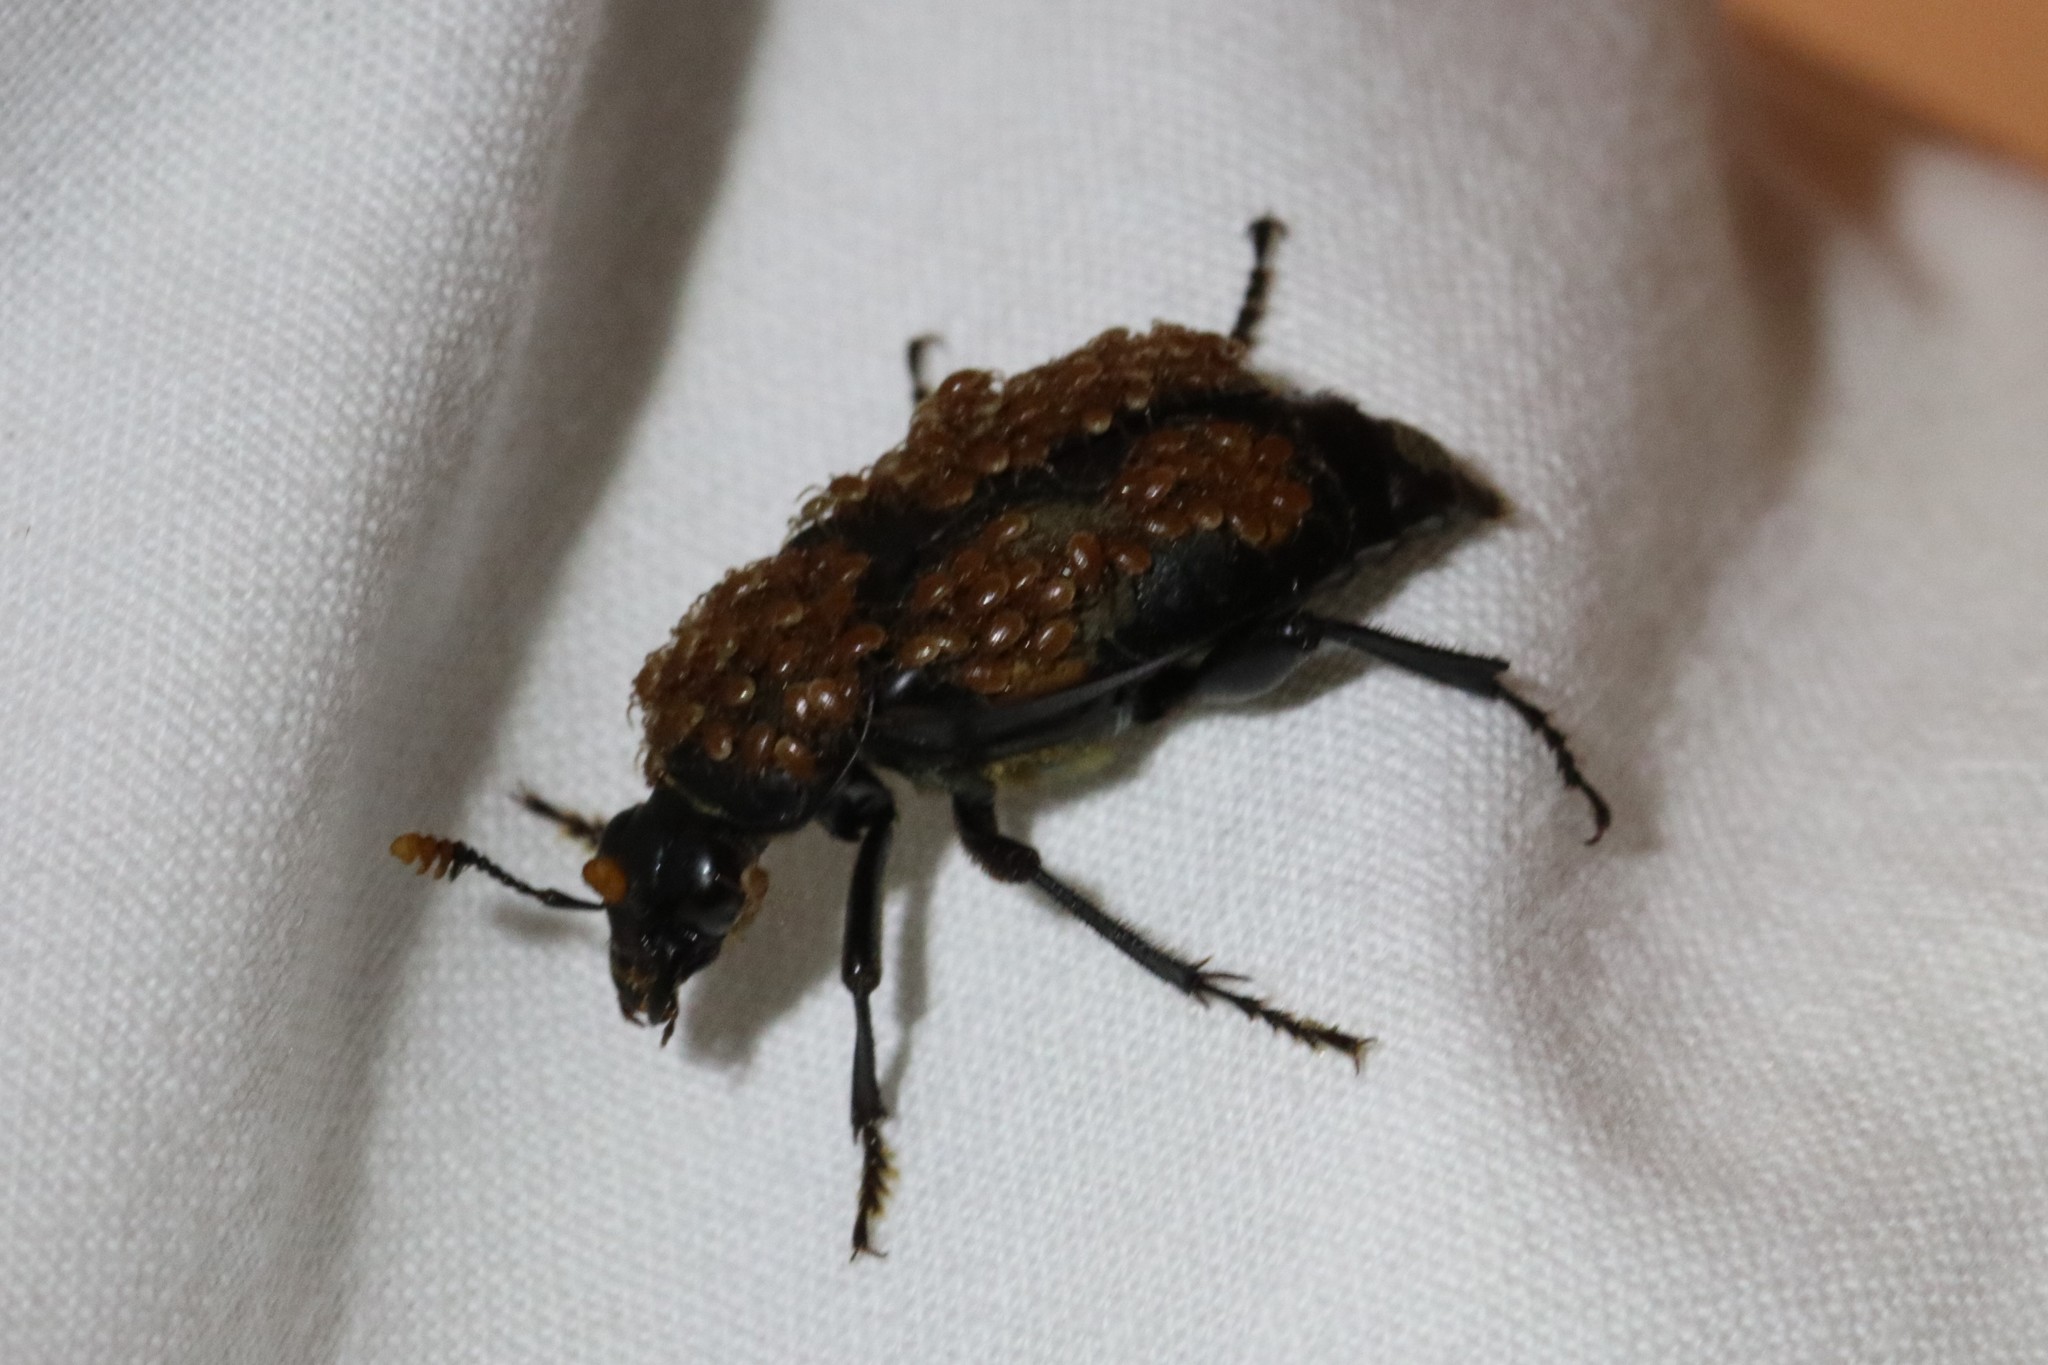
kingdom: Animalia
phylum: Arthropoda
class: Insecta
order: Coleoptera
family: Staphylinidae
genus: Nicrophorus
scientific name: Nicrophorus orbicollis
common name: Roundneck sexton beetle
